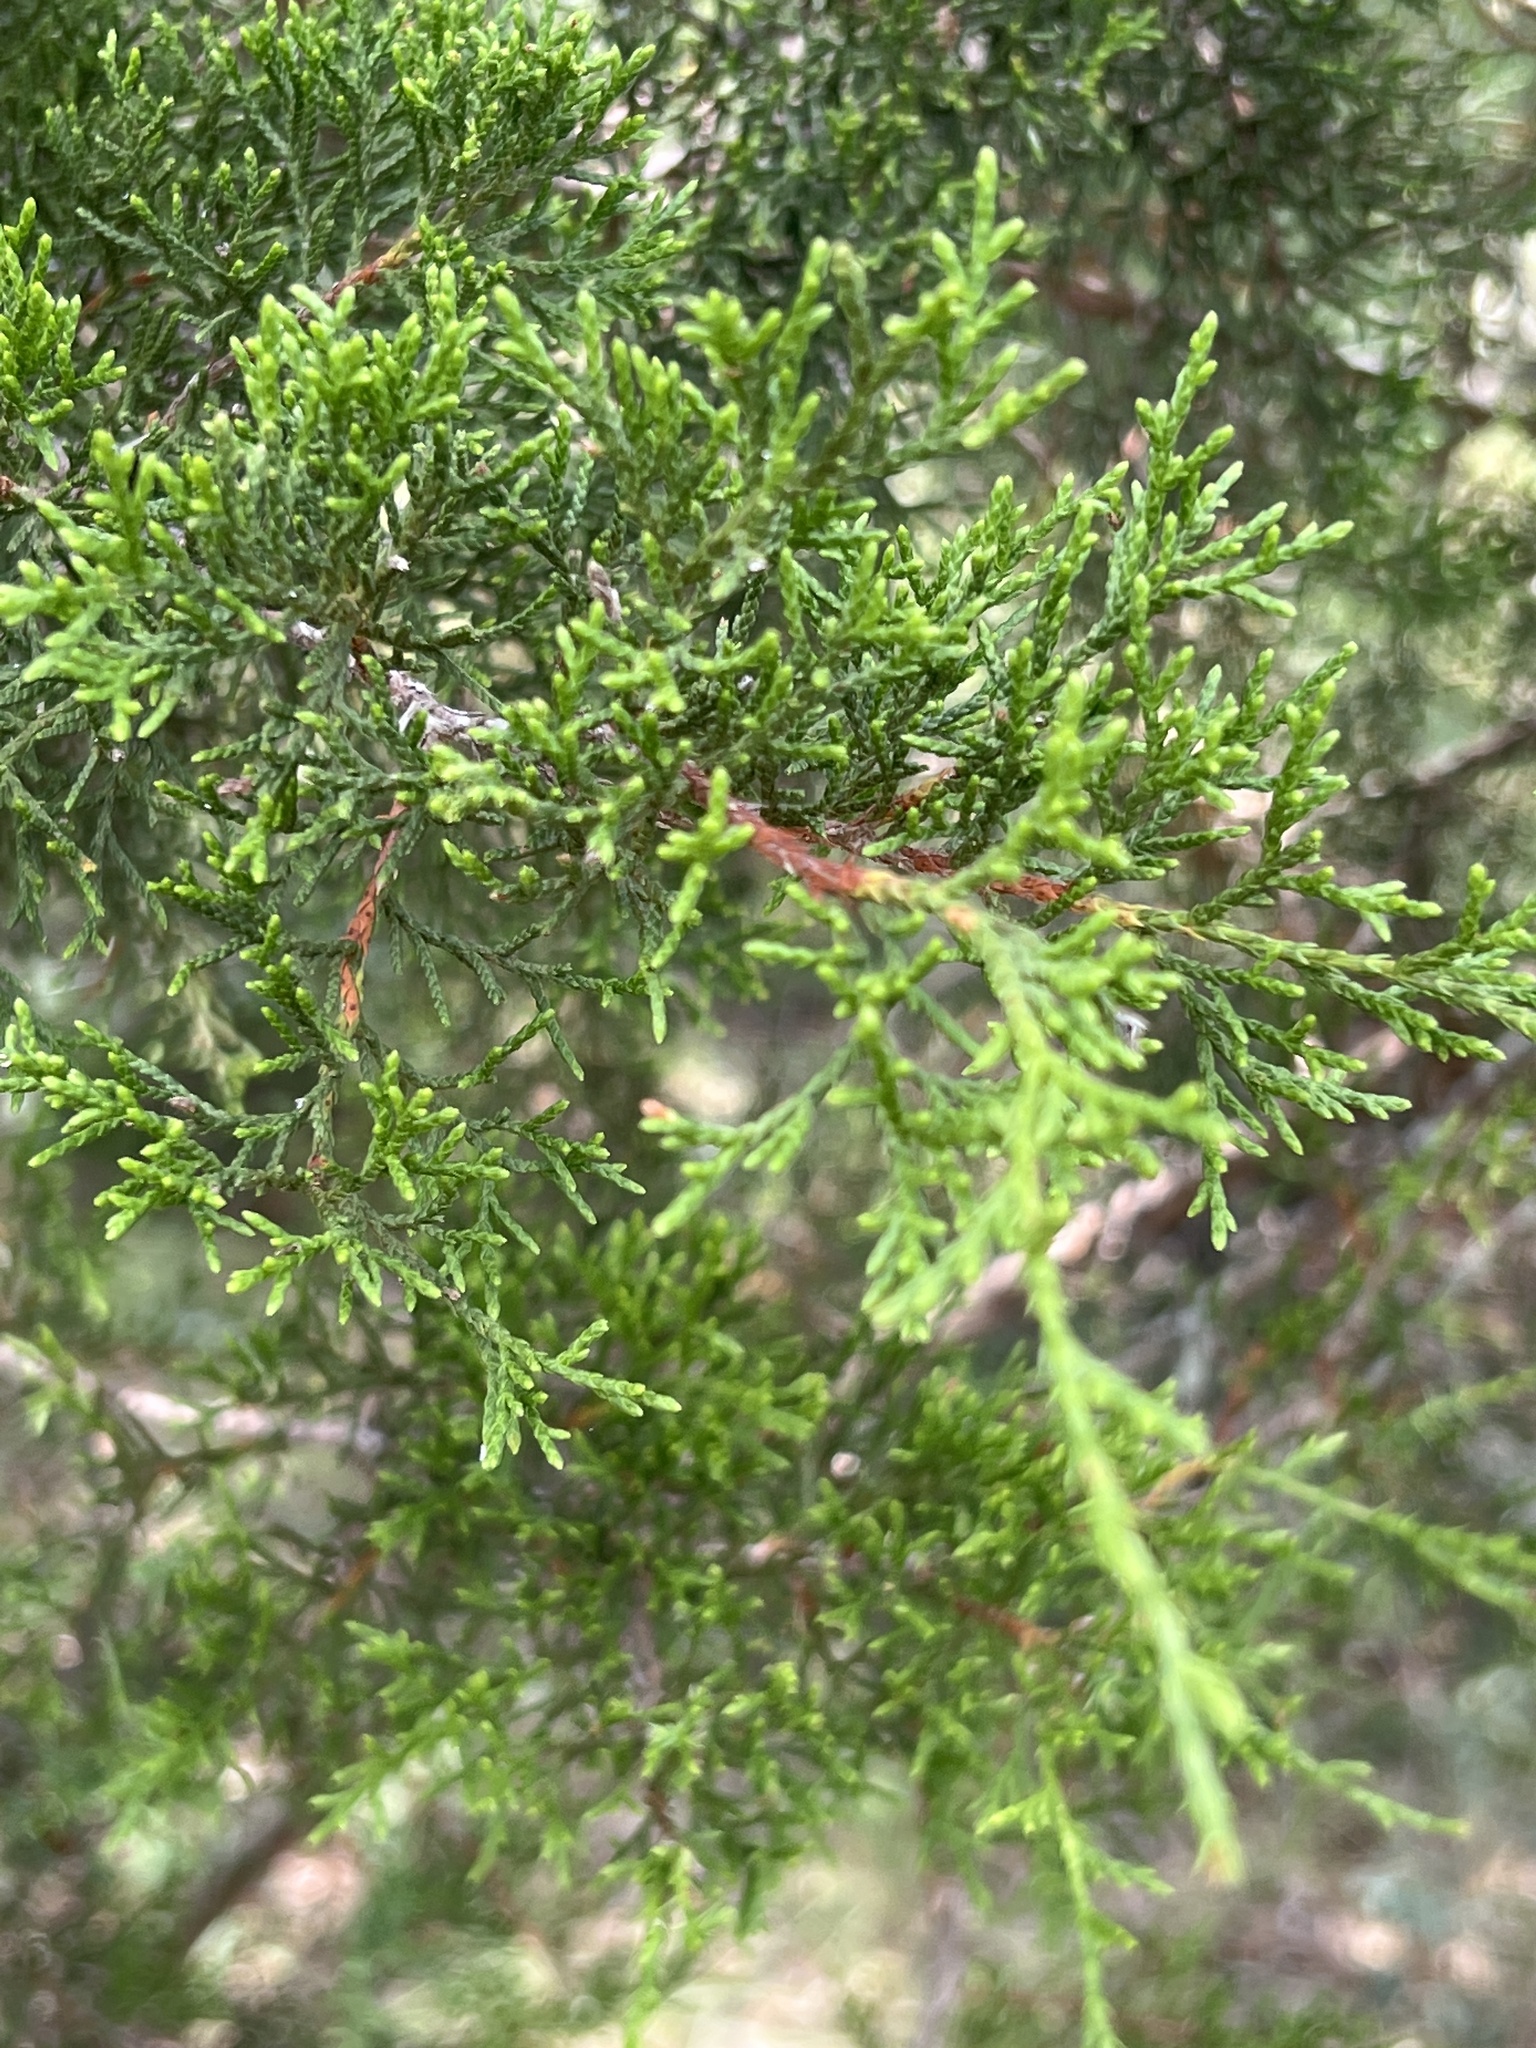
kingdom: Plantae
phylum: Tracheophyta
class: Pinopsida
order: Pinales
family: Cupressaceae
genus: Juniperus
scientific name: Juniperus ashei
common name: Mexican juniper
